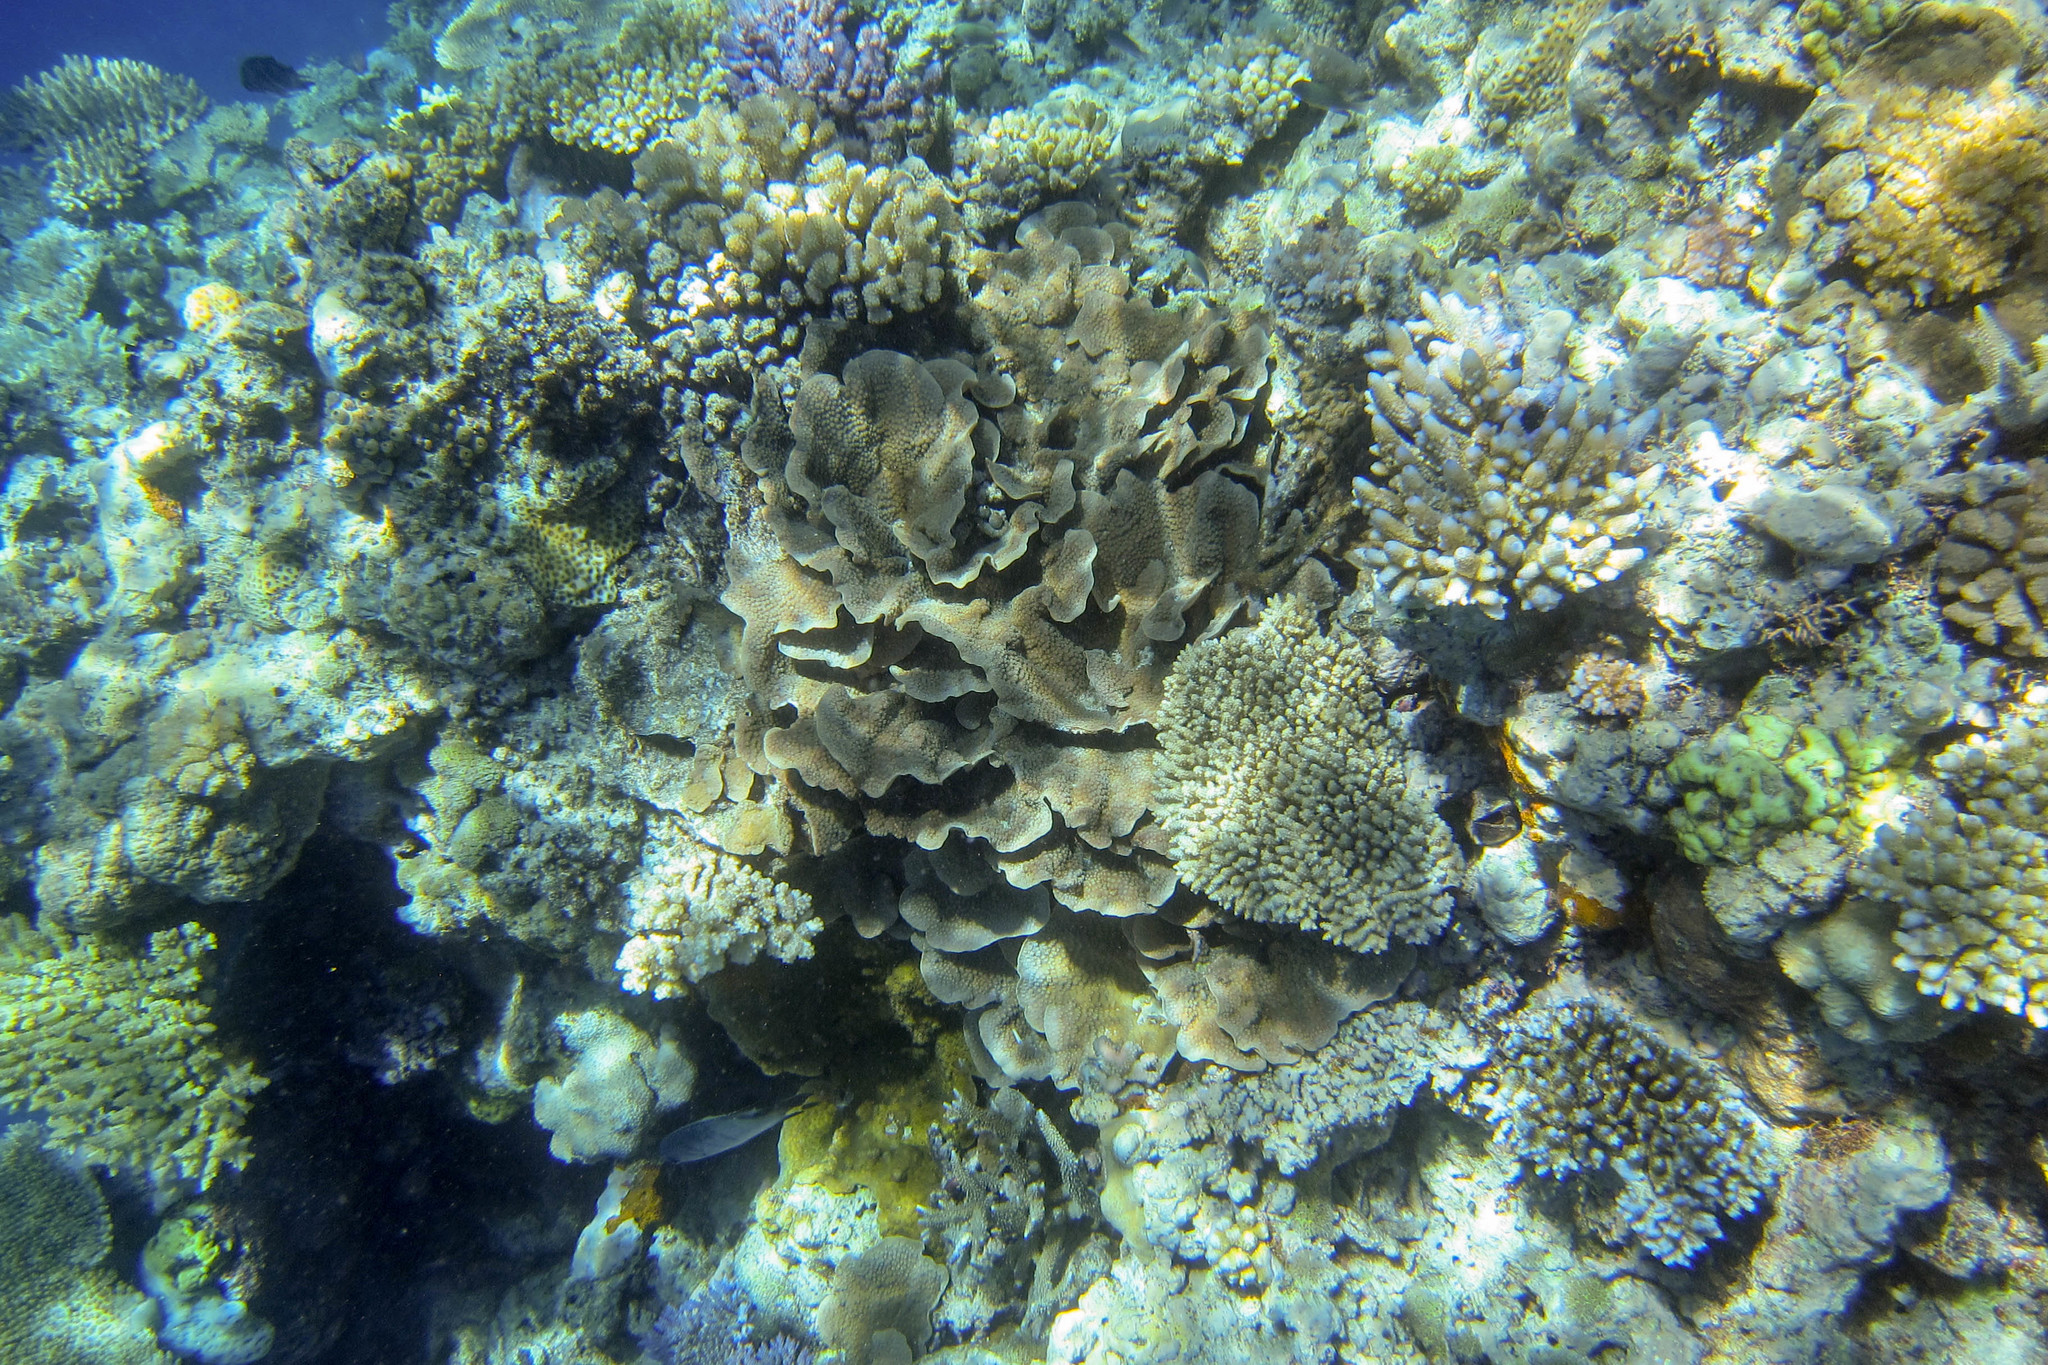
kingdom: Animalia
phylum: Cnidaria
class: Anthozoa
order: Scleractinia
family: Merulinidae
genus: Echinopora
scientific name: Echinopora lamellosa
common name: Hedgehog coral
